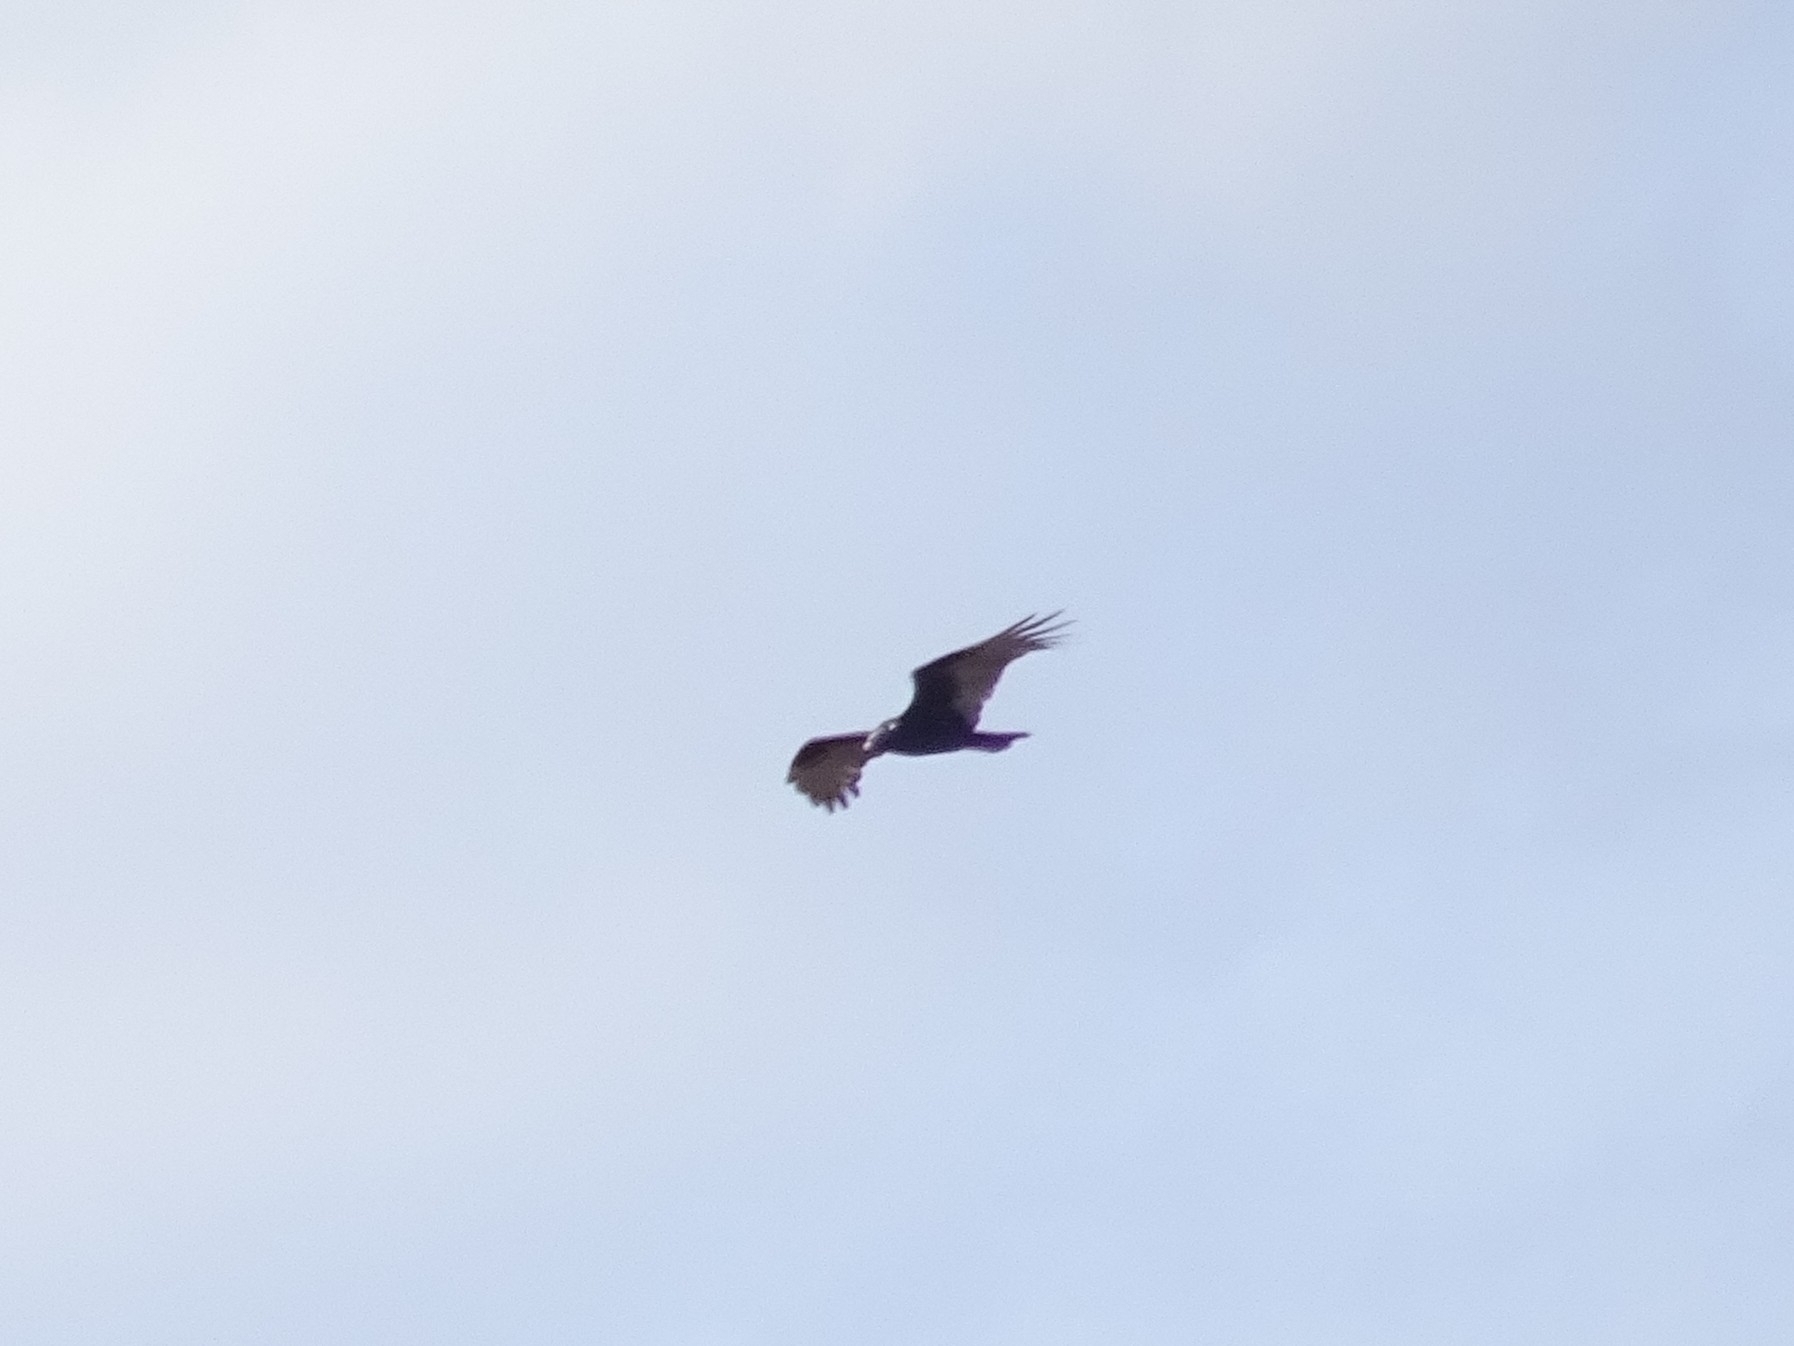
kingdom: Animalia
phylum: Chordata
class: Aves
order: Accipitriformes
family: Cathartidae
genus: Cathartes
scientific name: Cathartes aura
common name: Turkey vulture
